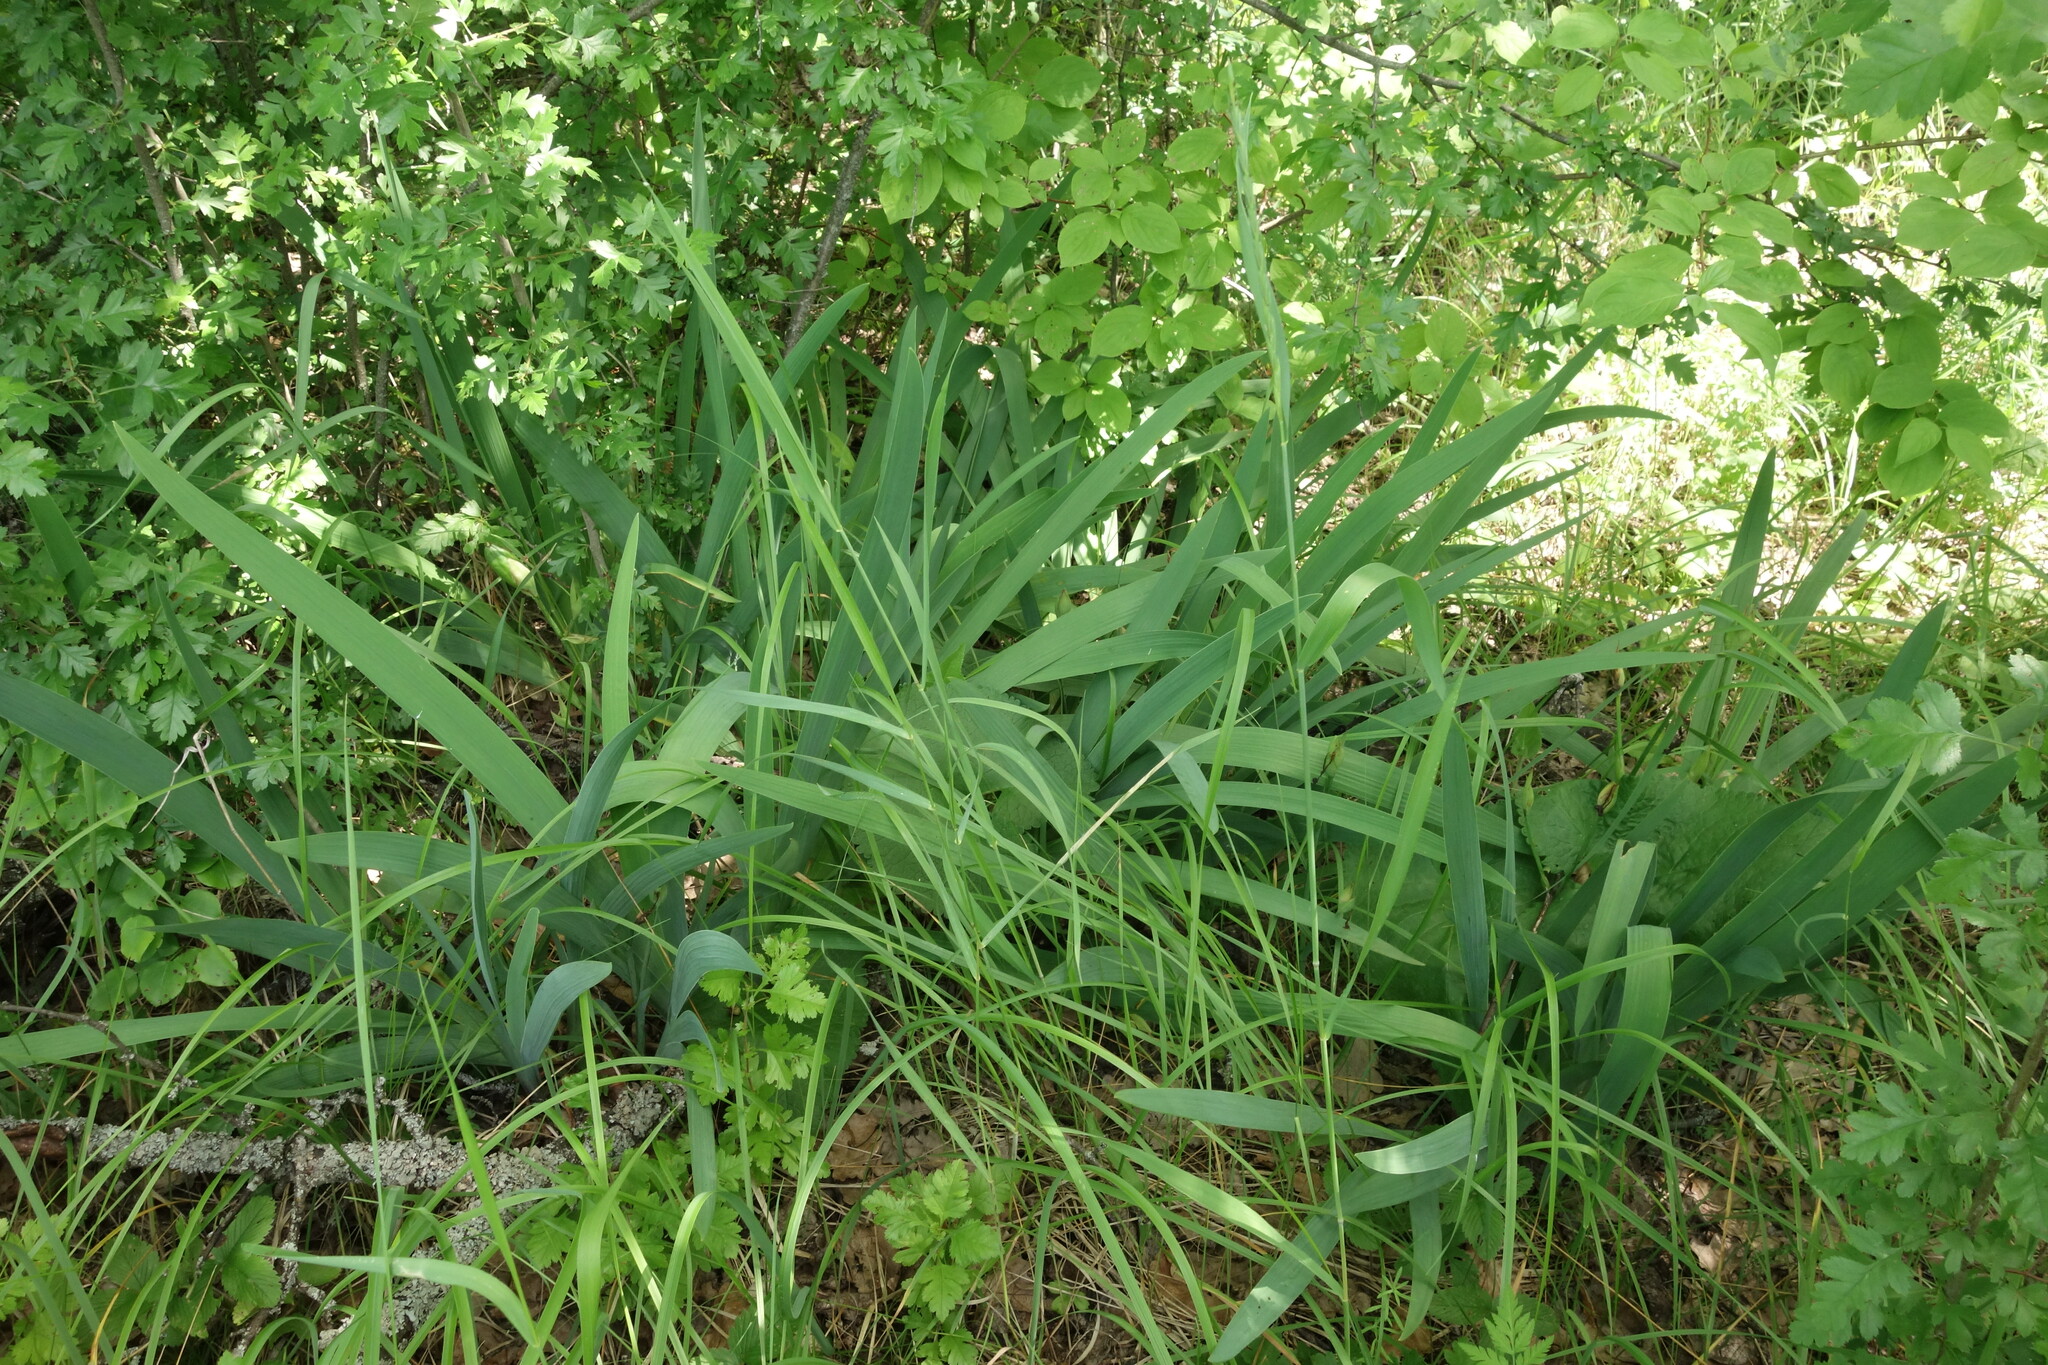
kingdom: Plantae
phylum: Tracheophyta
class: Liliopsida
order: Asparagales
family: Iridaceae
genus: Iris
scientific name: Iris aphylla
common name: Stool iris
